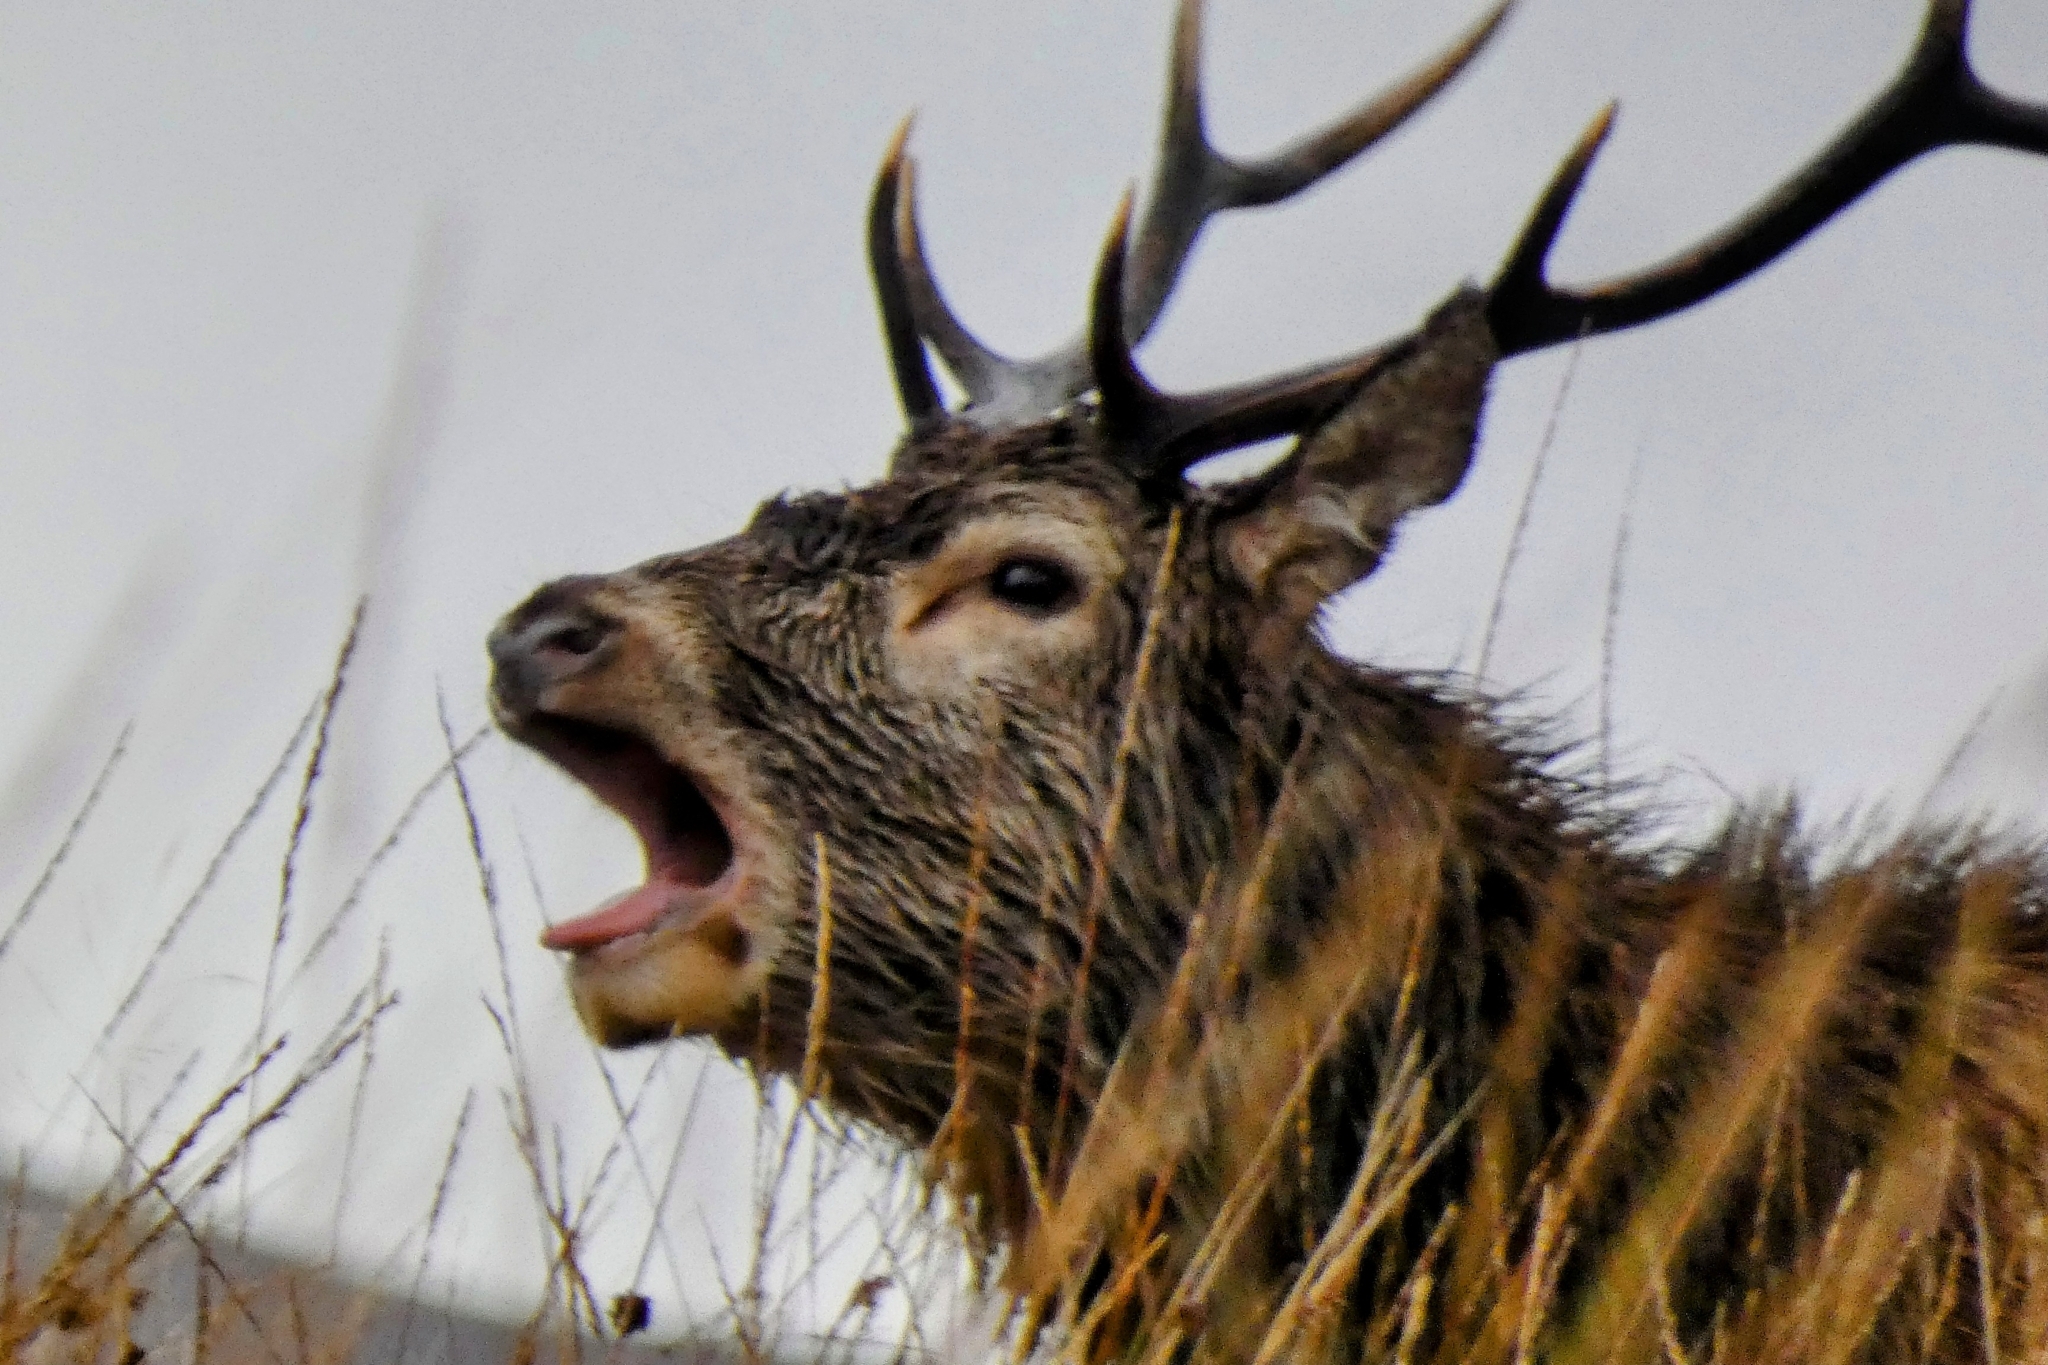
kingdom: Animalia
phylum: Chordata
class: Mammalia
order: Artiodactyla
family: Cervidae
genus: Cervus
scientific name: Cervus elaphus
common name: Red deer
